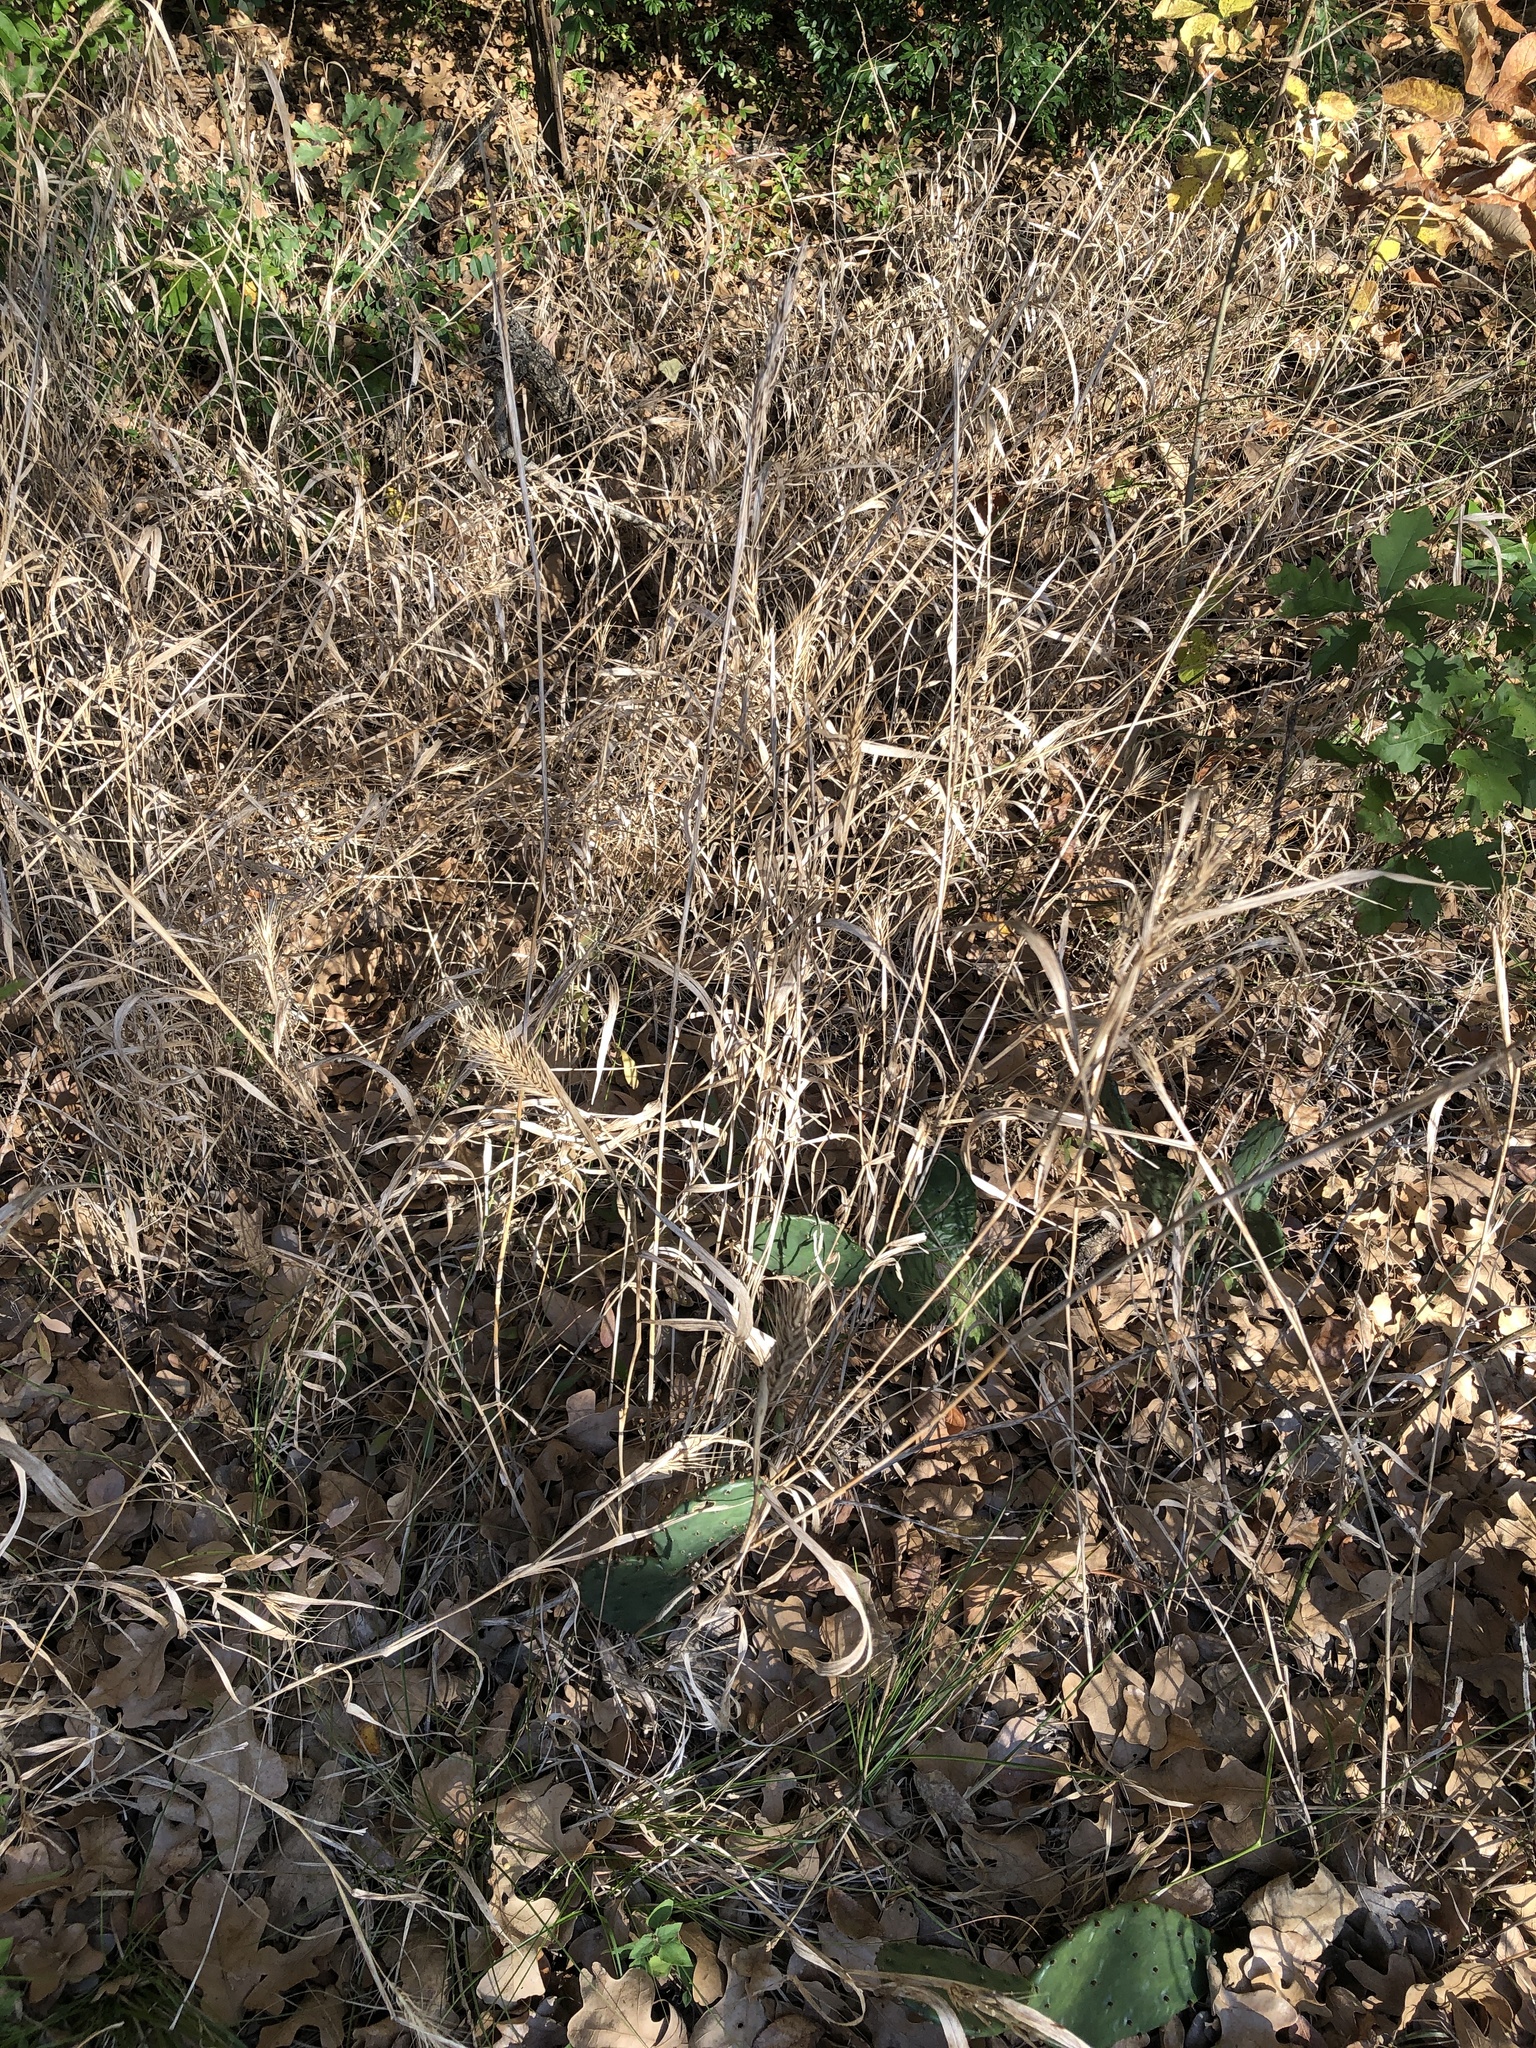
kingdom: Plantae
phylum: Tracheophyta
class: Liliopsida
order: Poales
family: Poaceae
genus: Elymus
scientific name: Elymus virginicus
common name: Common eastern wildrye
